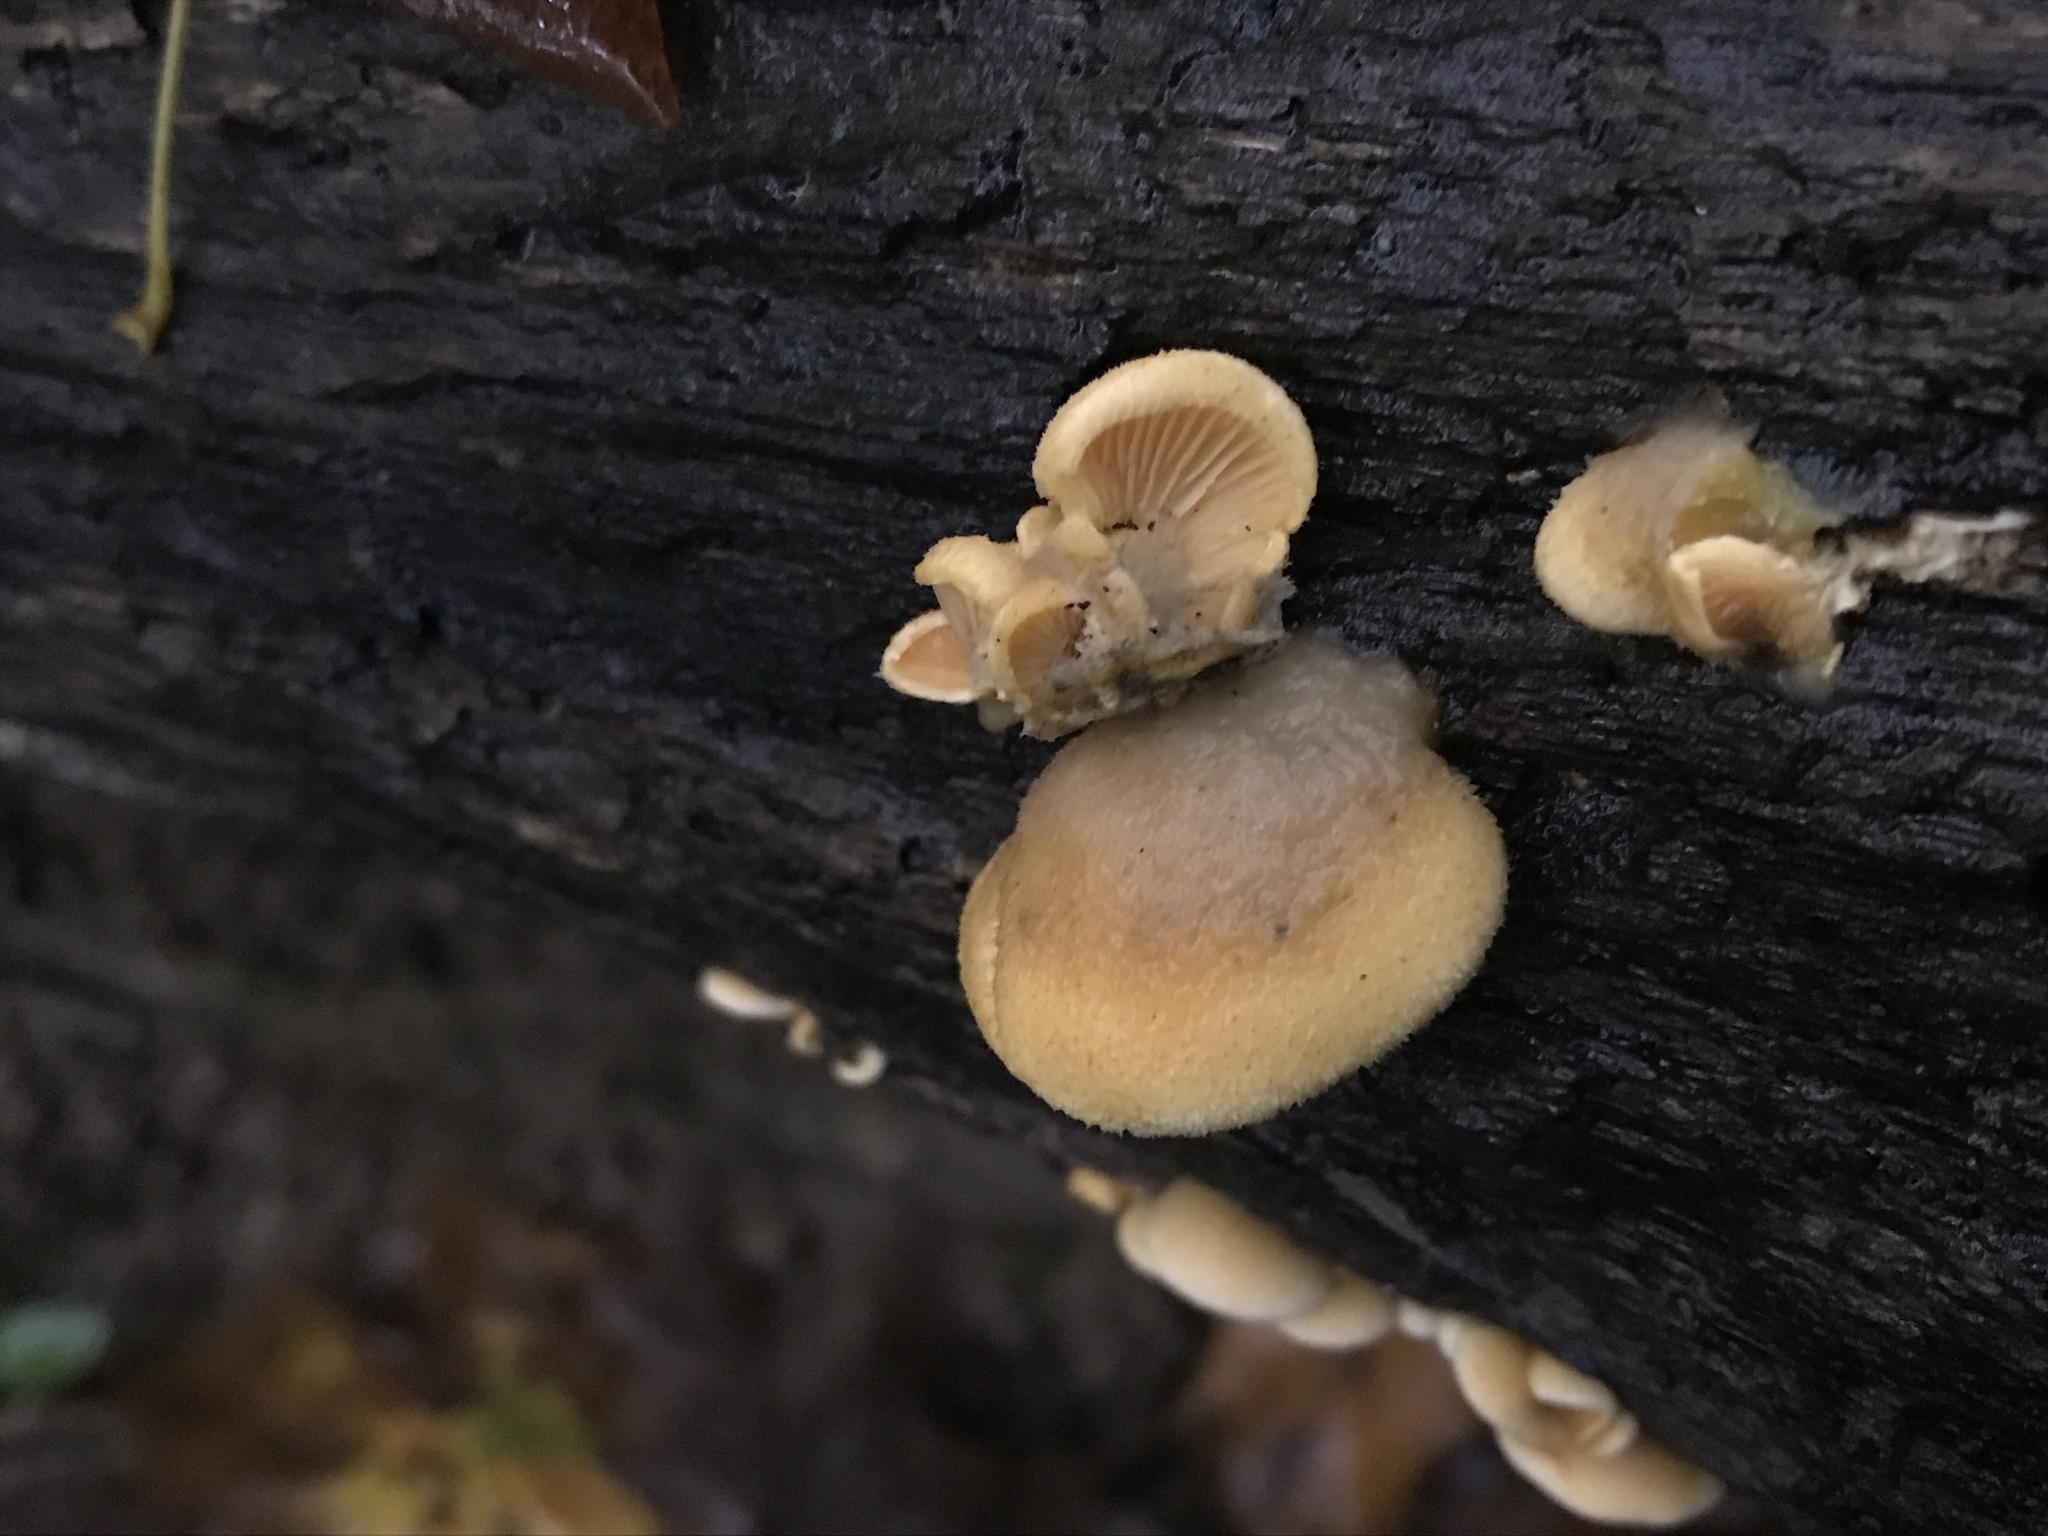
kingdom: Fungi
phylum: Basidiomycota
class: Agaricomycetes
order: Agaricales
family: Phyllotopsidaceae
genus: Phyllotopsis
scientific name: Phyllotopsis nidulans
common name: Orange mock oyster
